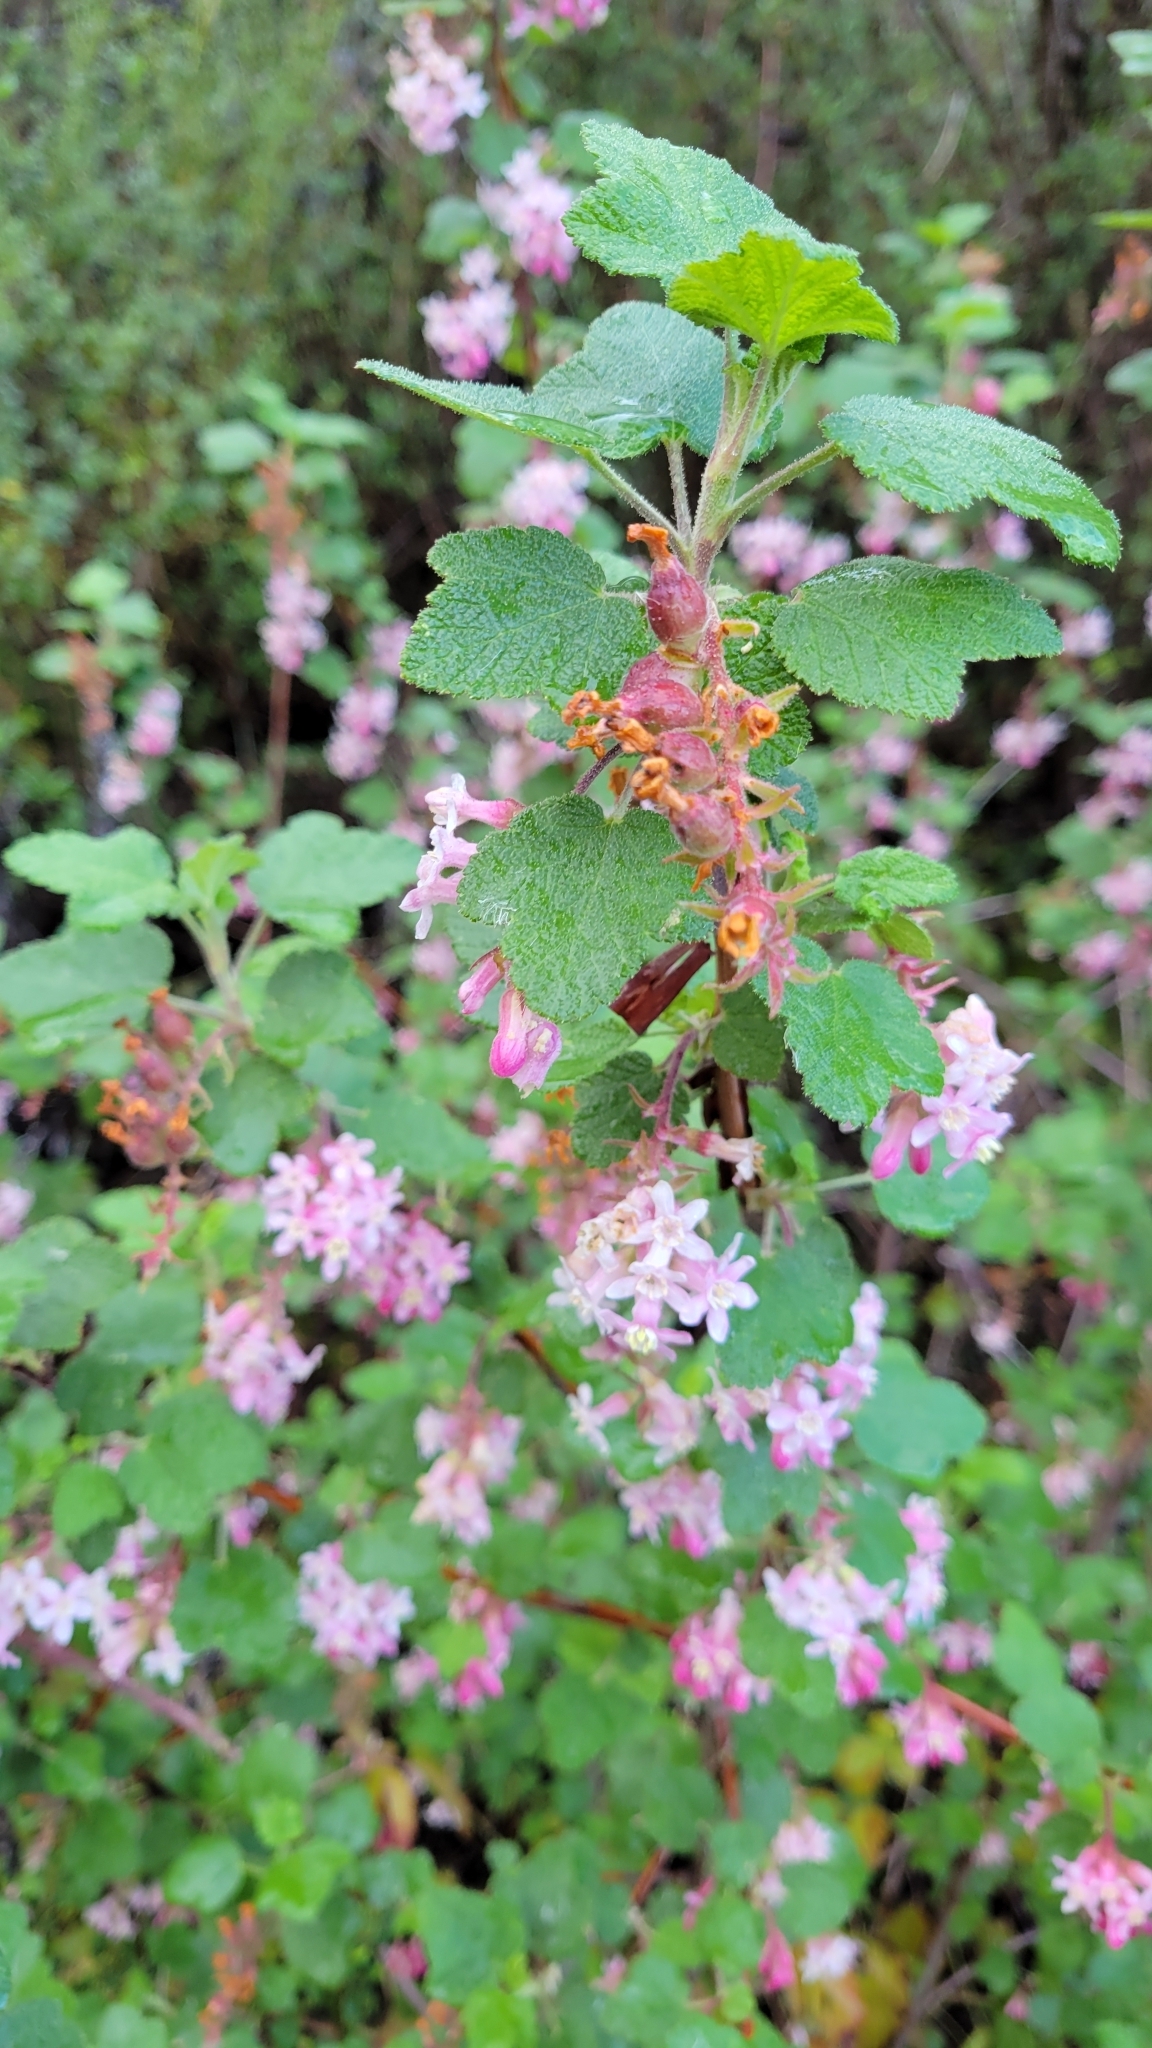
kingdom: Plantae
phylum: Tracheophyta
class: Magnoliopsida
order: Saxifragales
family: Grossulariaceae
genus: Ribes
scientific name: Ribes malvaceum
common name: Chaparral currant
